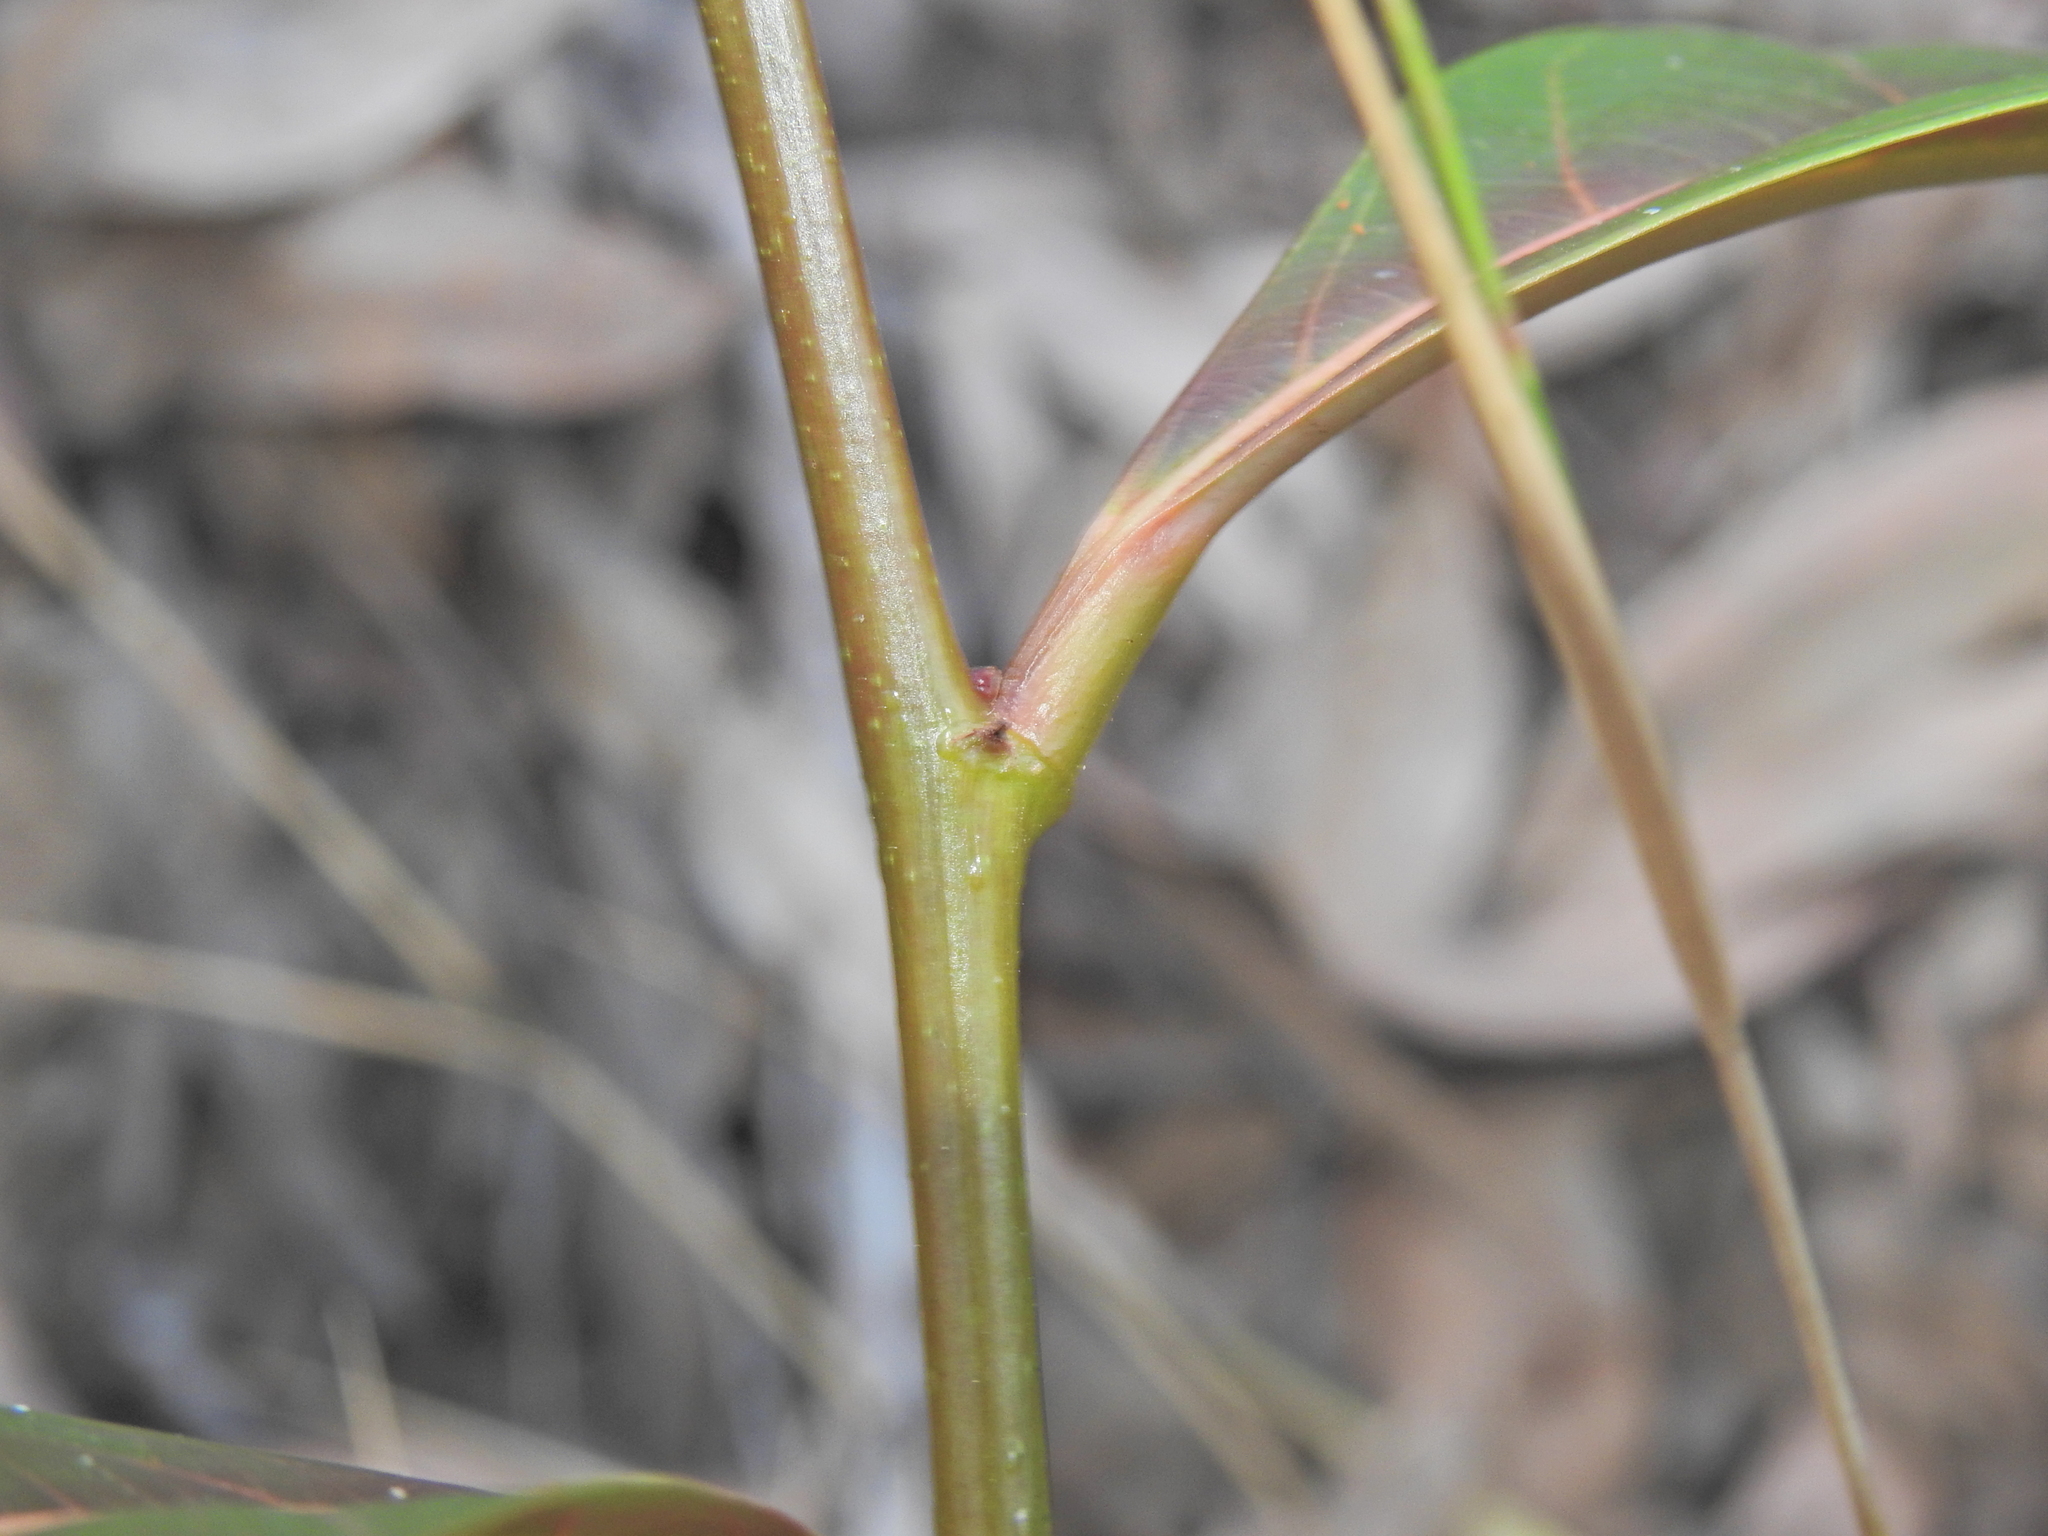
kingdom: Plantae
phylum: Tracheophyta
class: Magnoliopsida
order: Malpighiales
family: Phyllanthaceae
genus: Glochidion
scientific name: Glochidion zeylanicum
